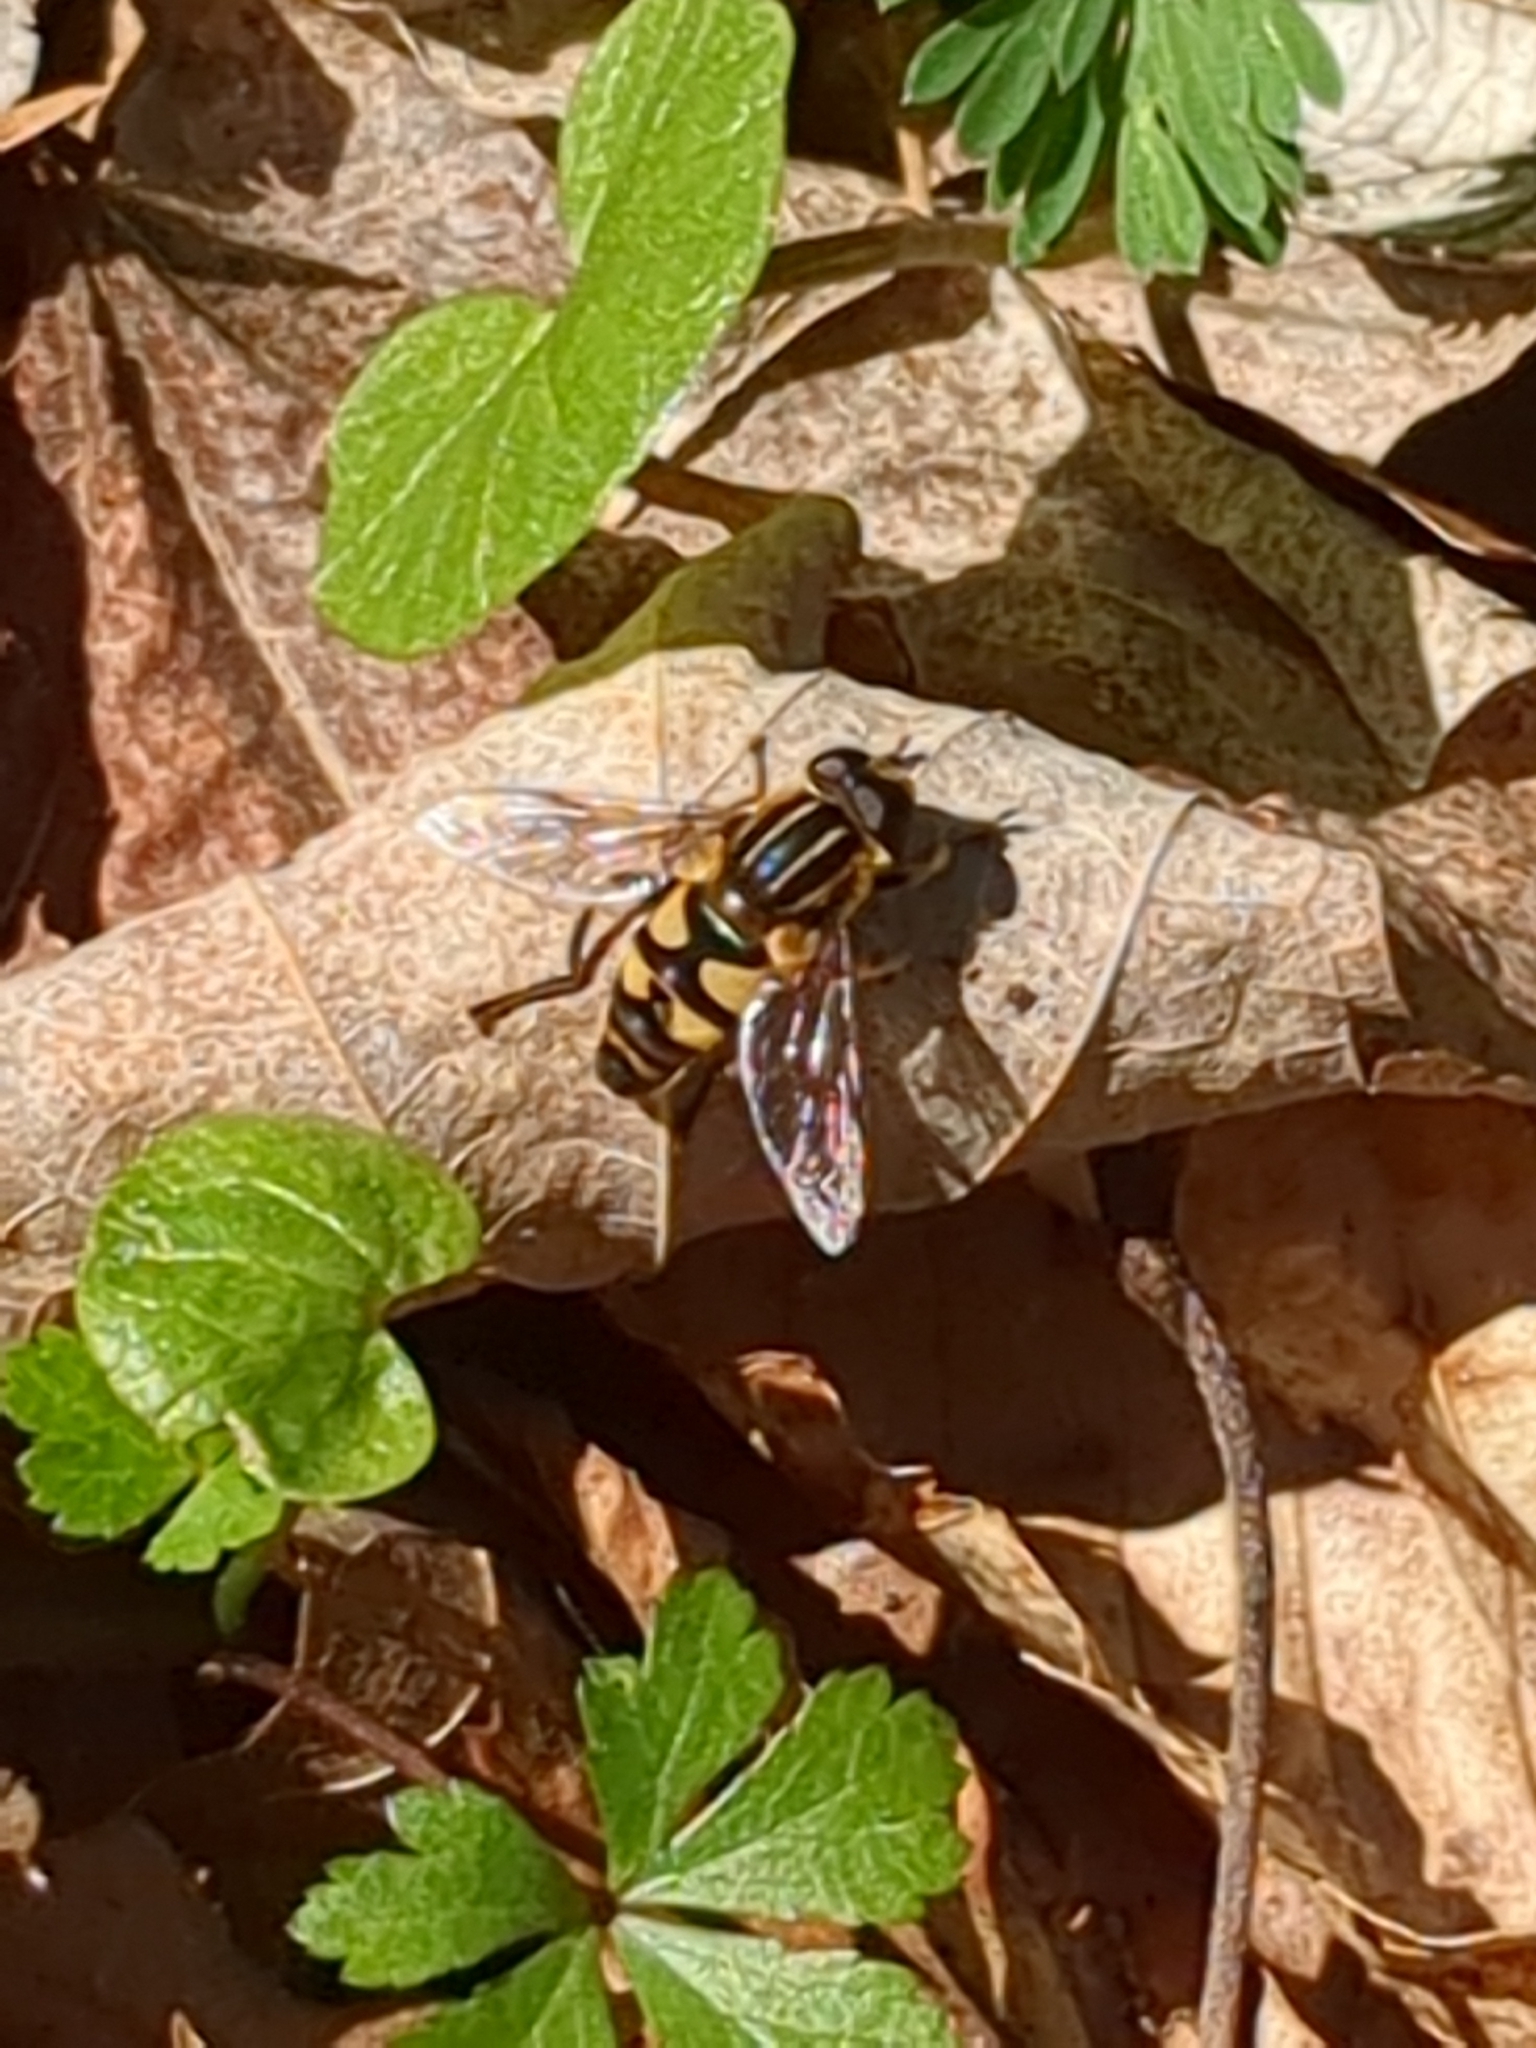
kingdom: Animalia
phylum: Arthropoda
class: Insecta
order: Diptera
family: Syrphidae
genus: Helophilus
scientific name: Helophilus fasciatus
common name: Narrow-headed marsh fly
